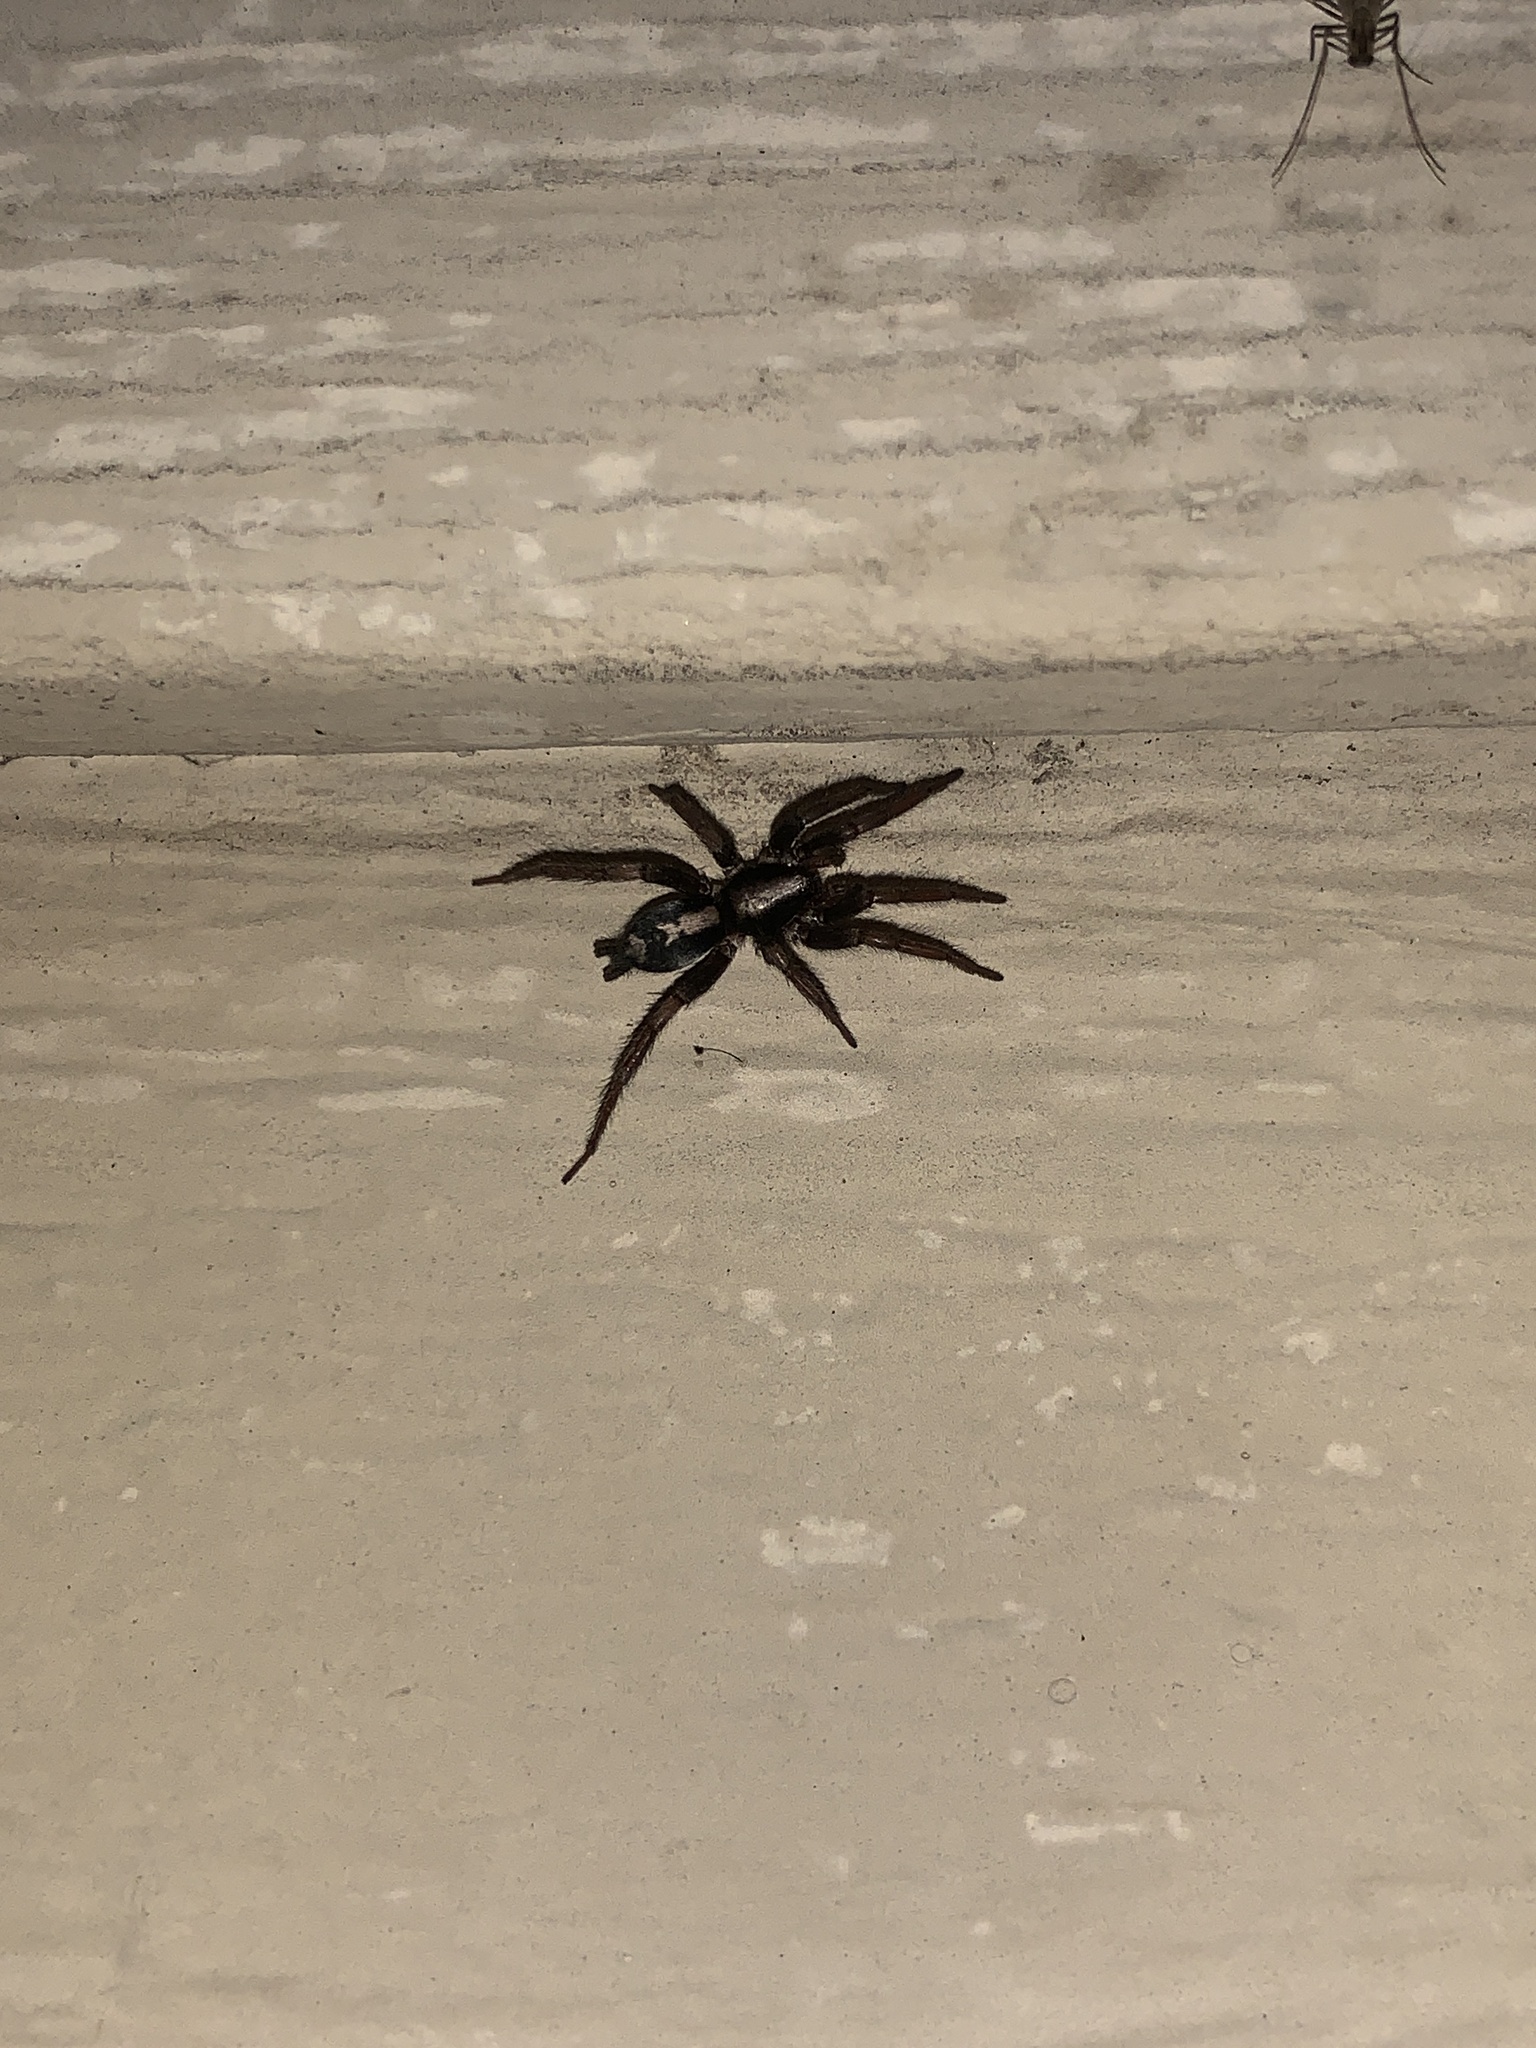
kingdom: Animalia
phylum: Arthropoda
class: Arachnida
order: Araneae
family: Gnaphosidae
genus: Herpyllus
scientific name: Herpyllus ecclesiasticus
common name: Eastern parson spider
